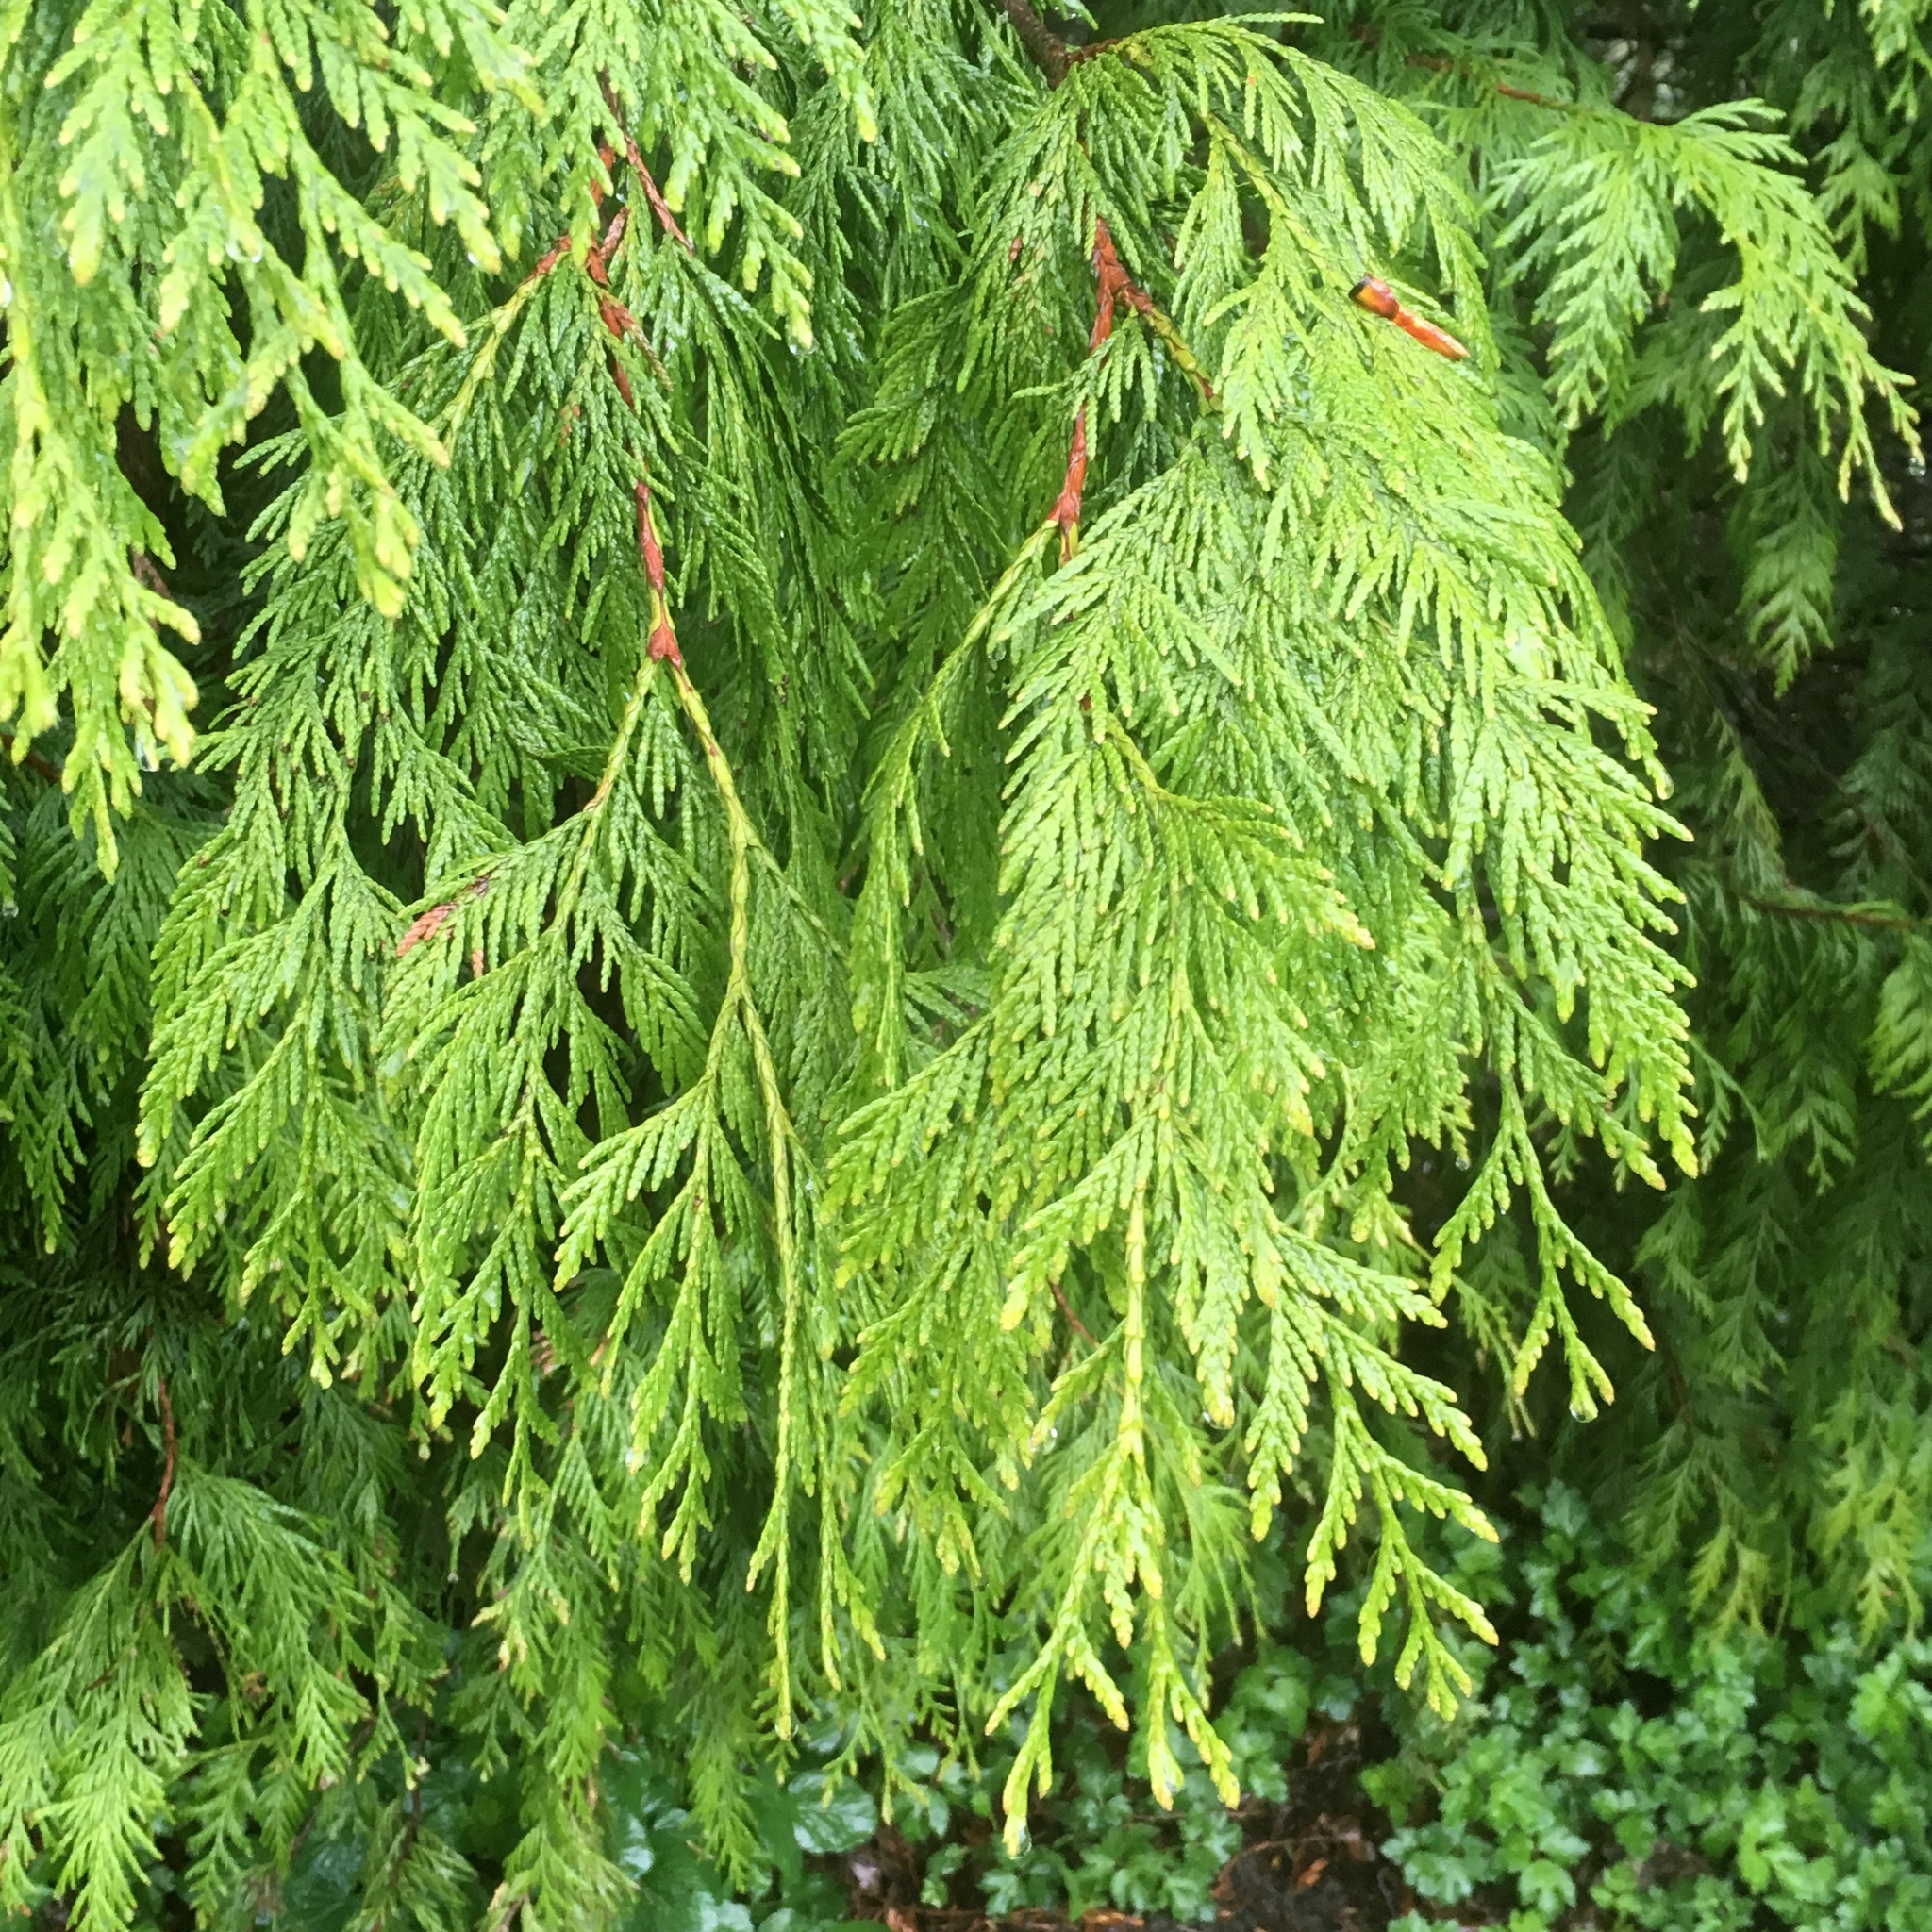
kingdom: Plantae
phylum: Tracheophyta
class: Pinopsida
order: Pinales
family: Cupressaceae
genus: Thuja
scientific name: Thuja plicata
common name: Western red-cedar
